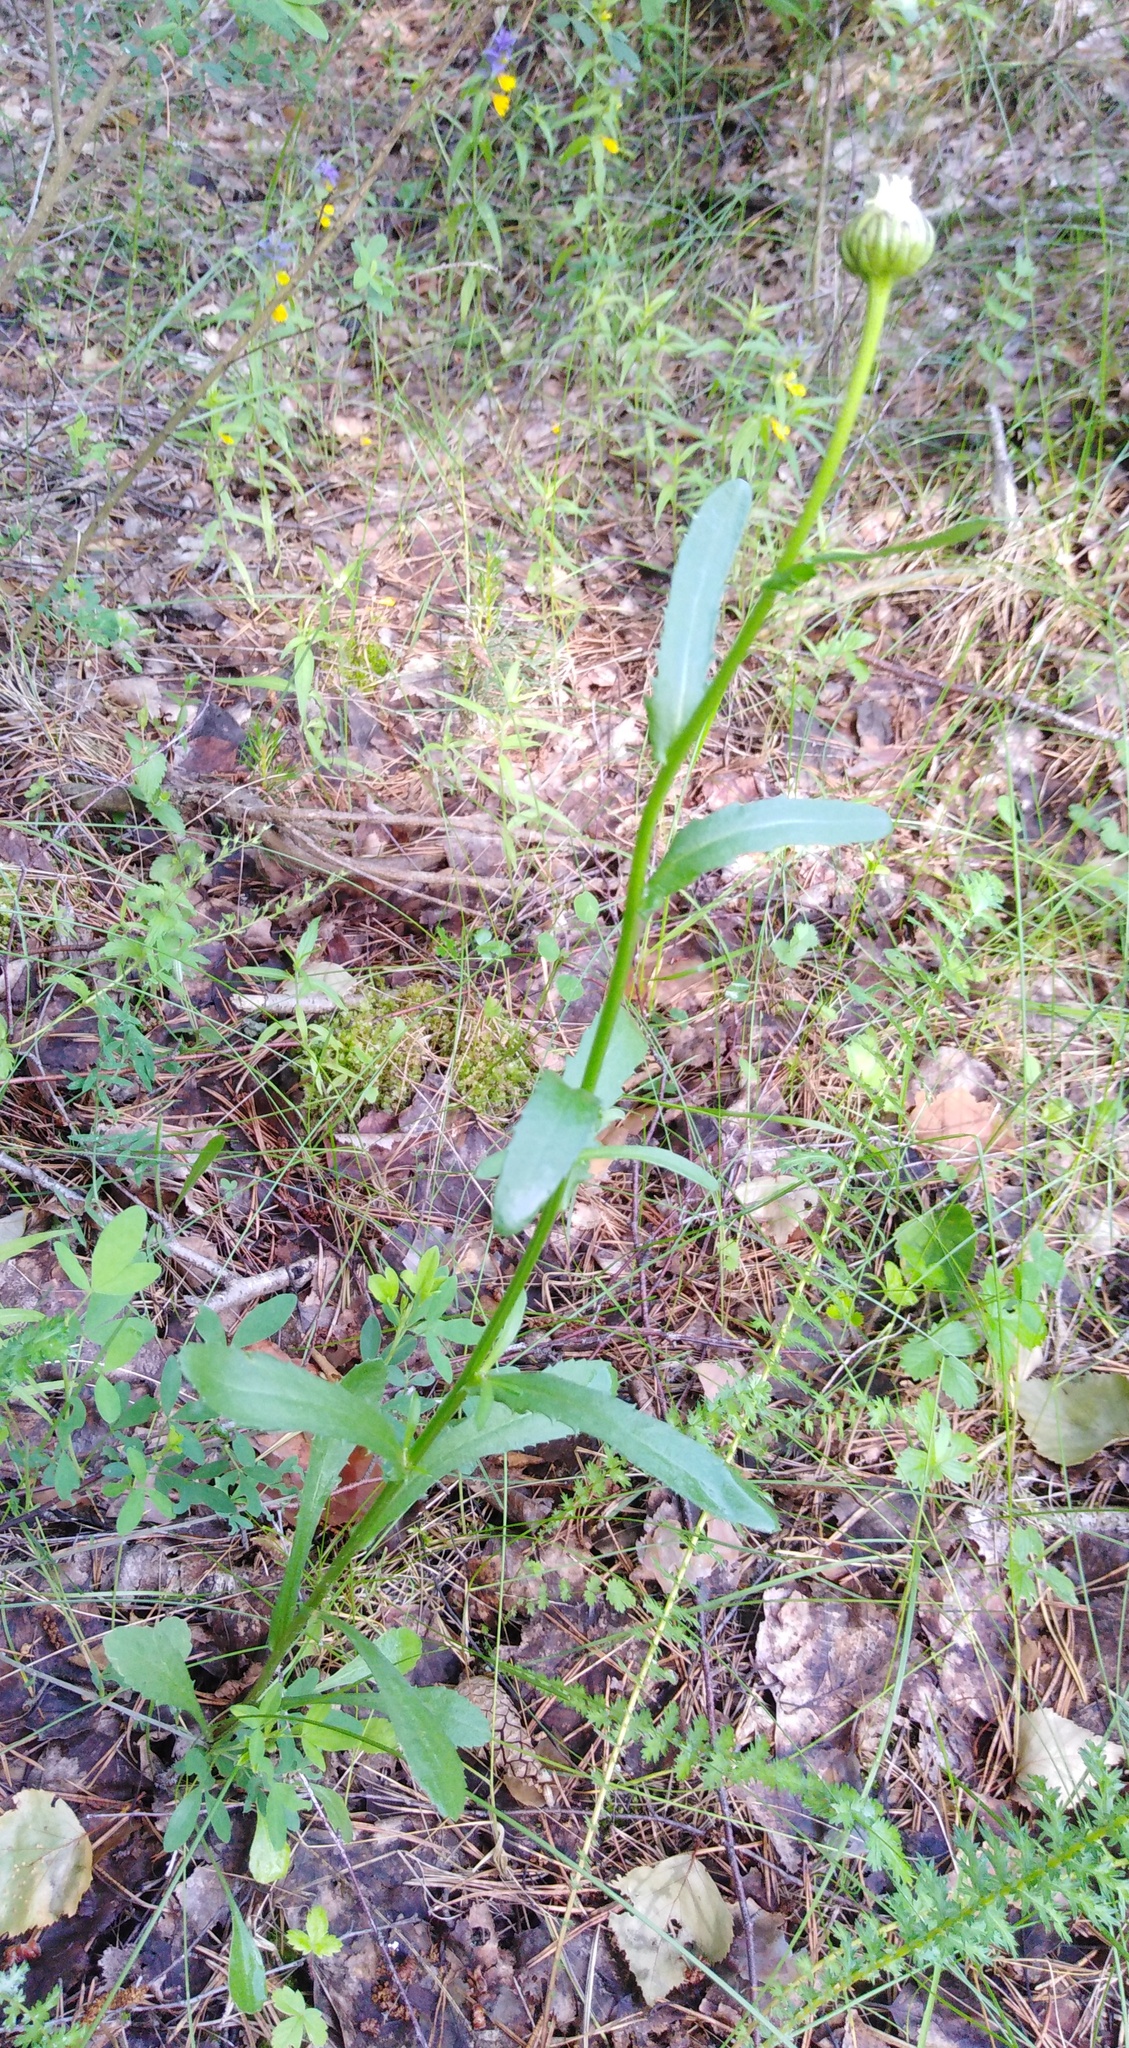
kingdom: Plantae
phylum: Tracheophyta
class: Magnoliopsida
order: Asterales
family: Asteraceae
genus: Leucanthemum
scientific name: Leucanthemum vulgare
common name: Oxeye daisy
